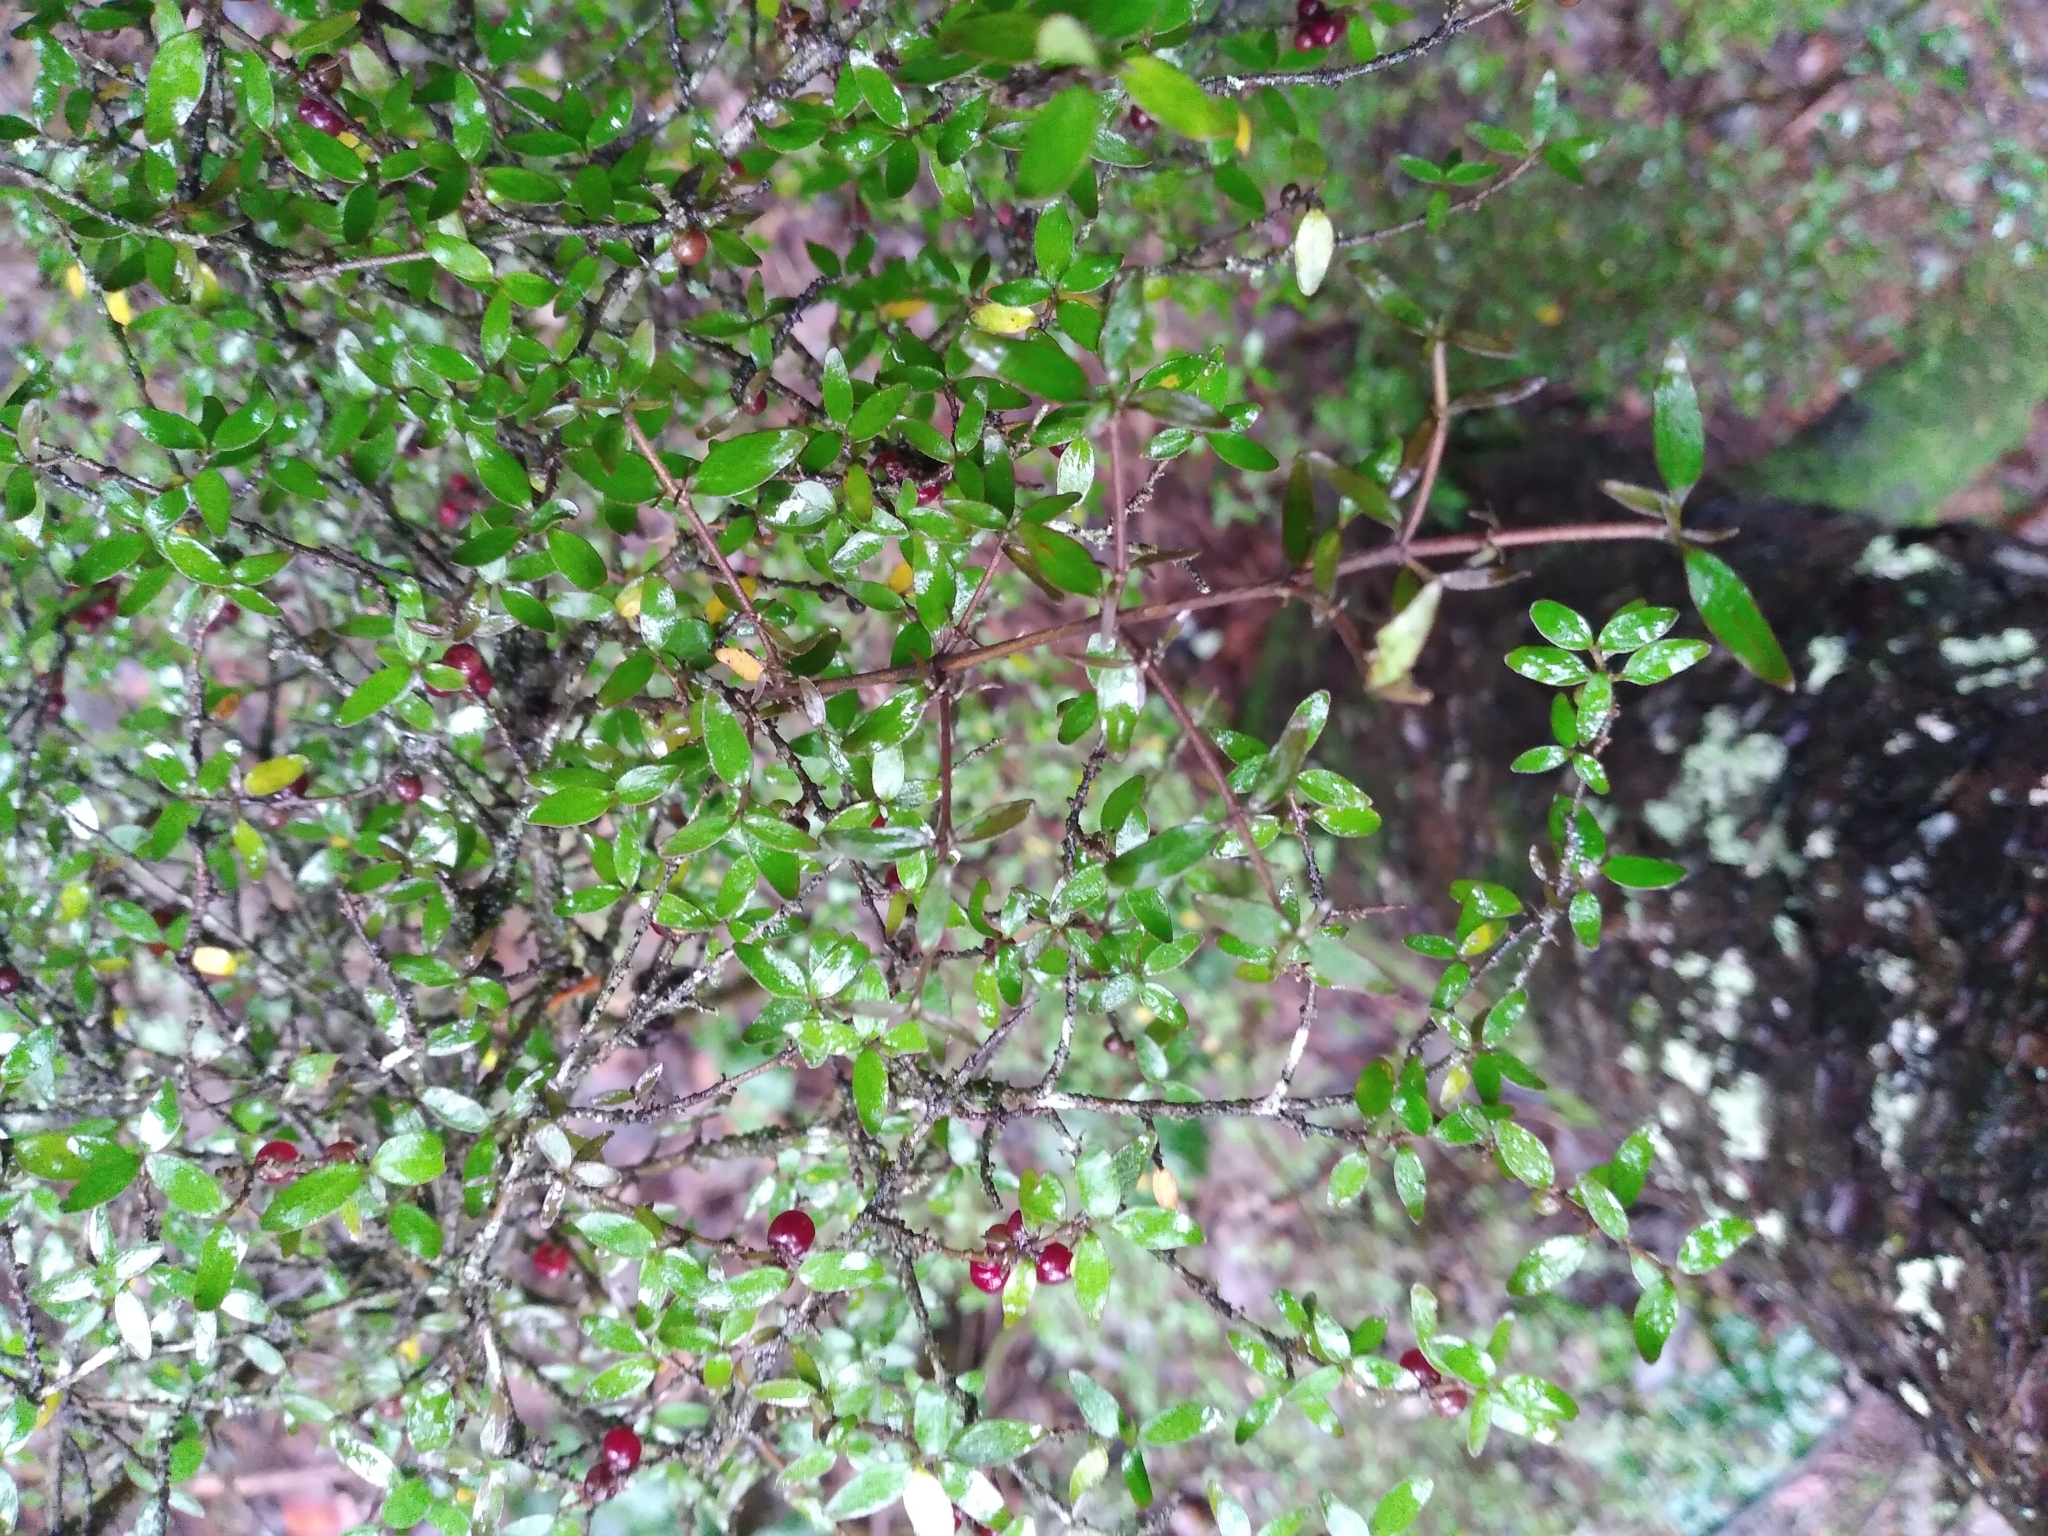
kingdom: Plantae
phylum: Tracheophyta
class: Magnoliopsida
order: Gentianales
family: Rubiaceae
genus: Coprosma
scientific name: Coprosma rhamnoides
